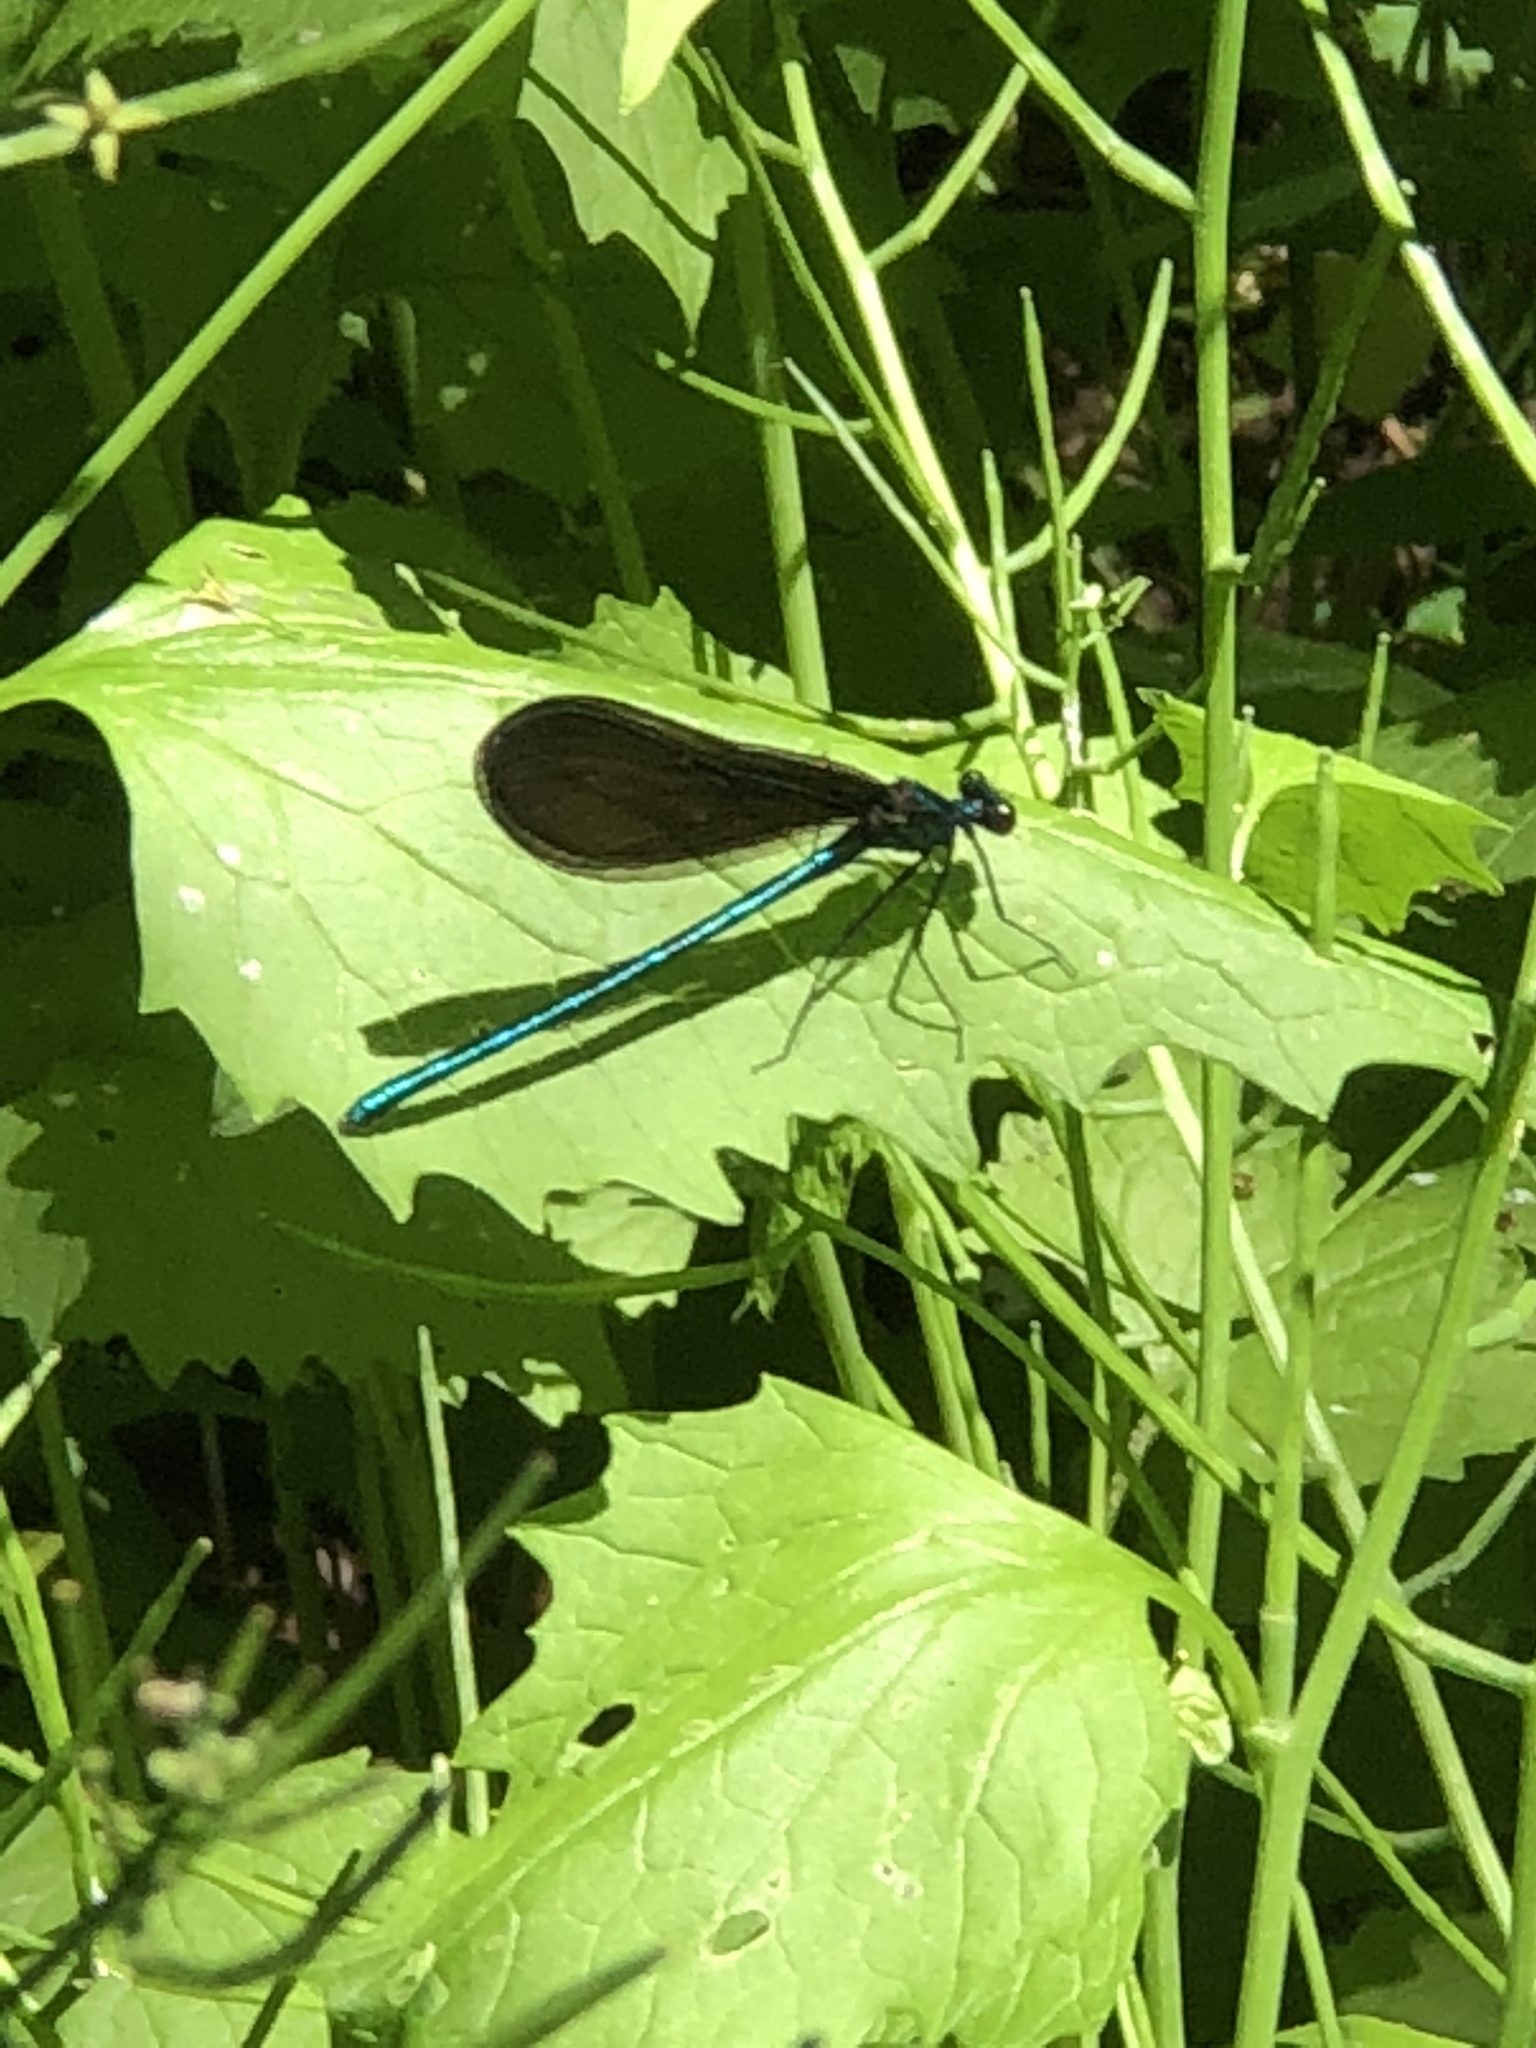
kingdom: Animalia
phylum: Arthropoda
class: Insecta
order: Odonata
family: Calopterygidae
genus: Calopteryx
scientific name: Calopteryx maculata
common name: Ebony jewelwing
